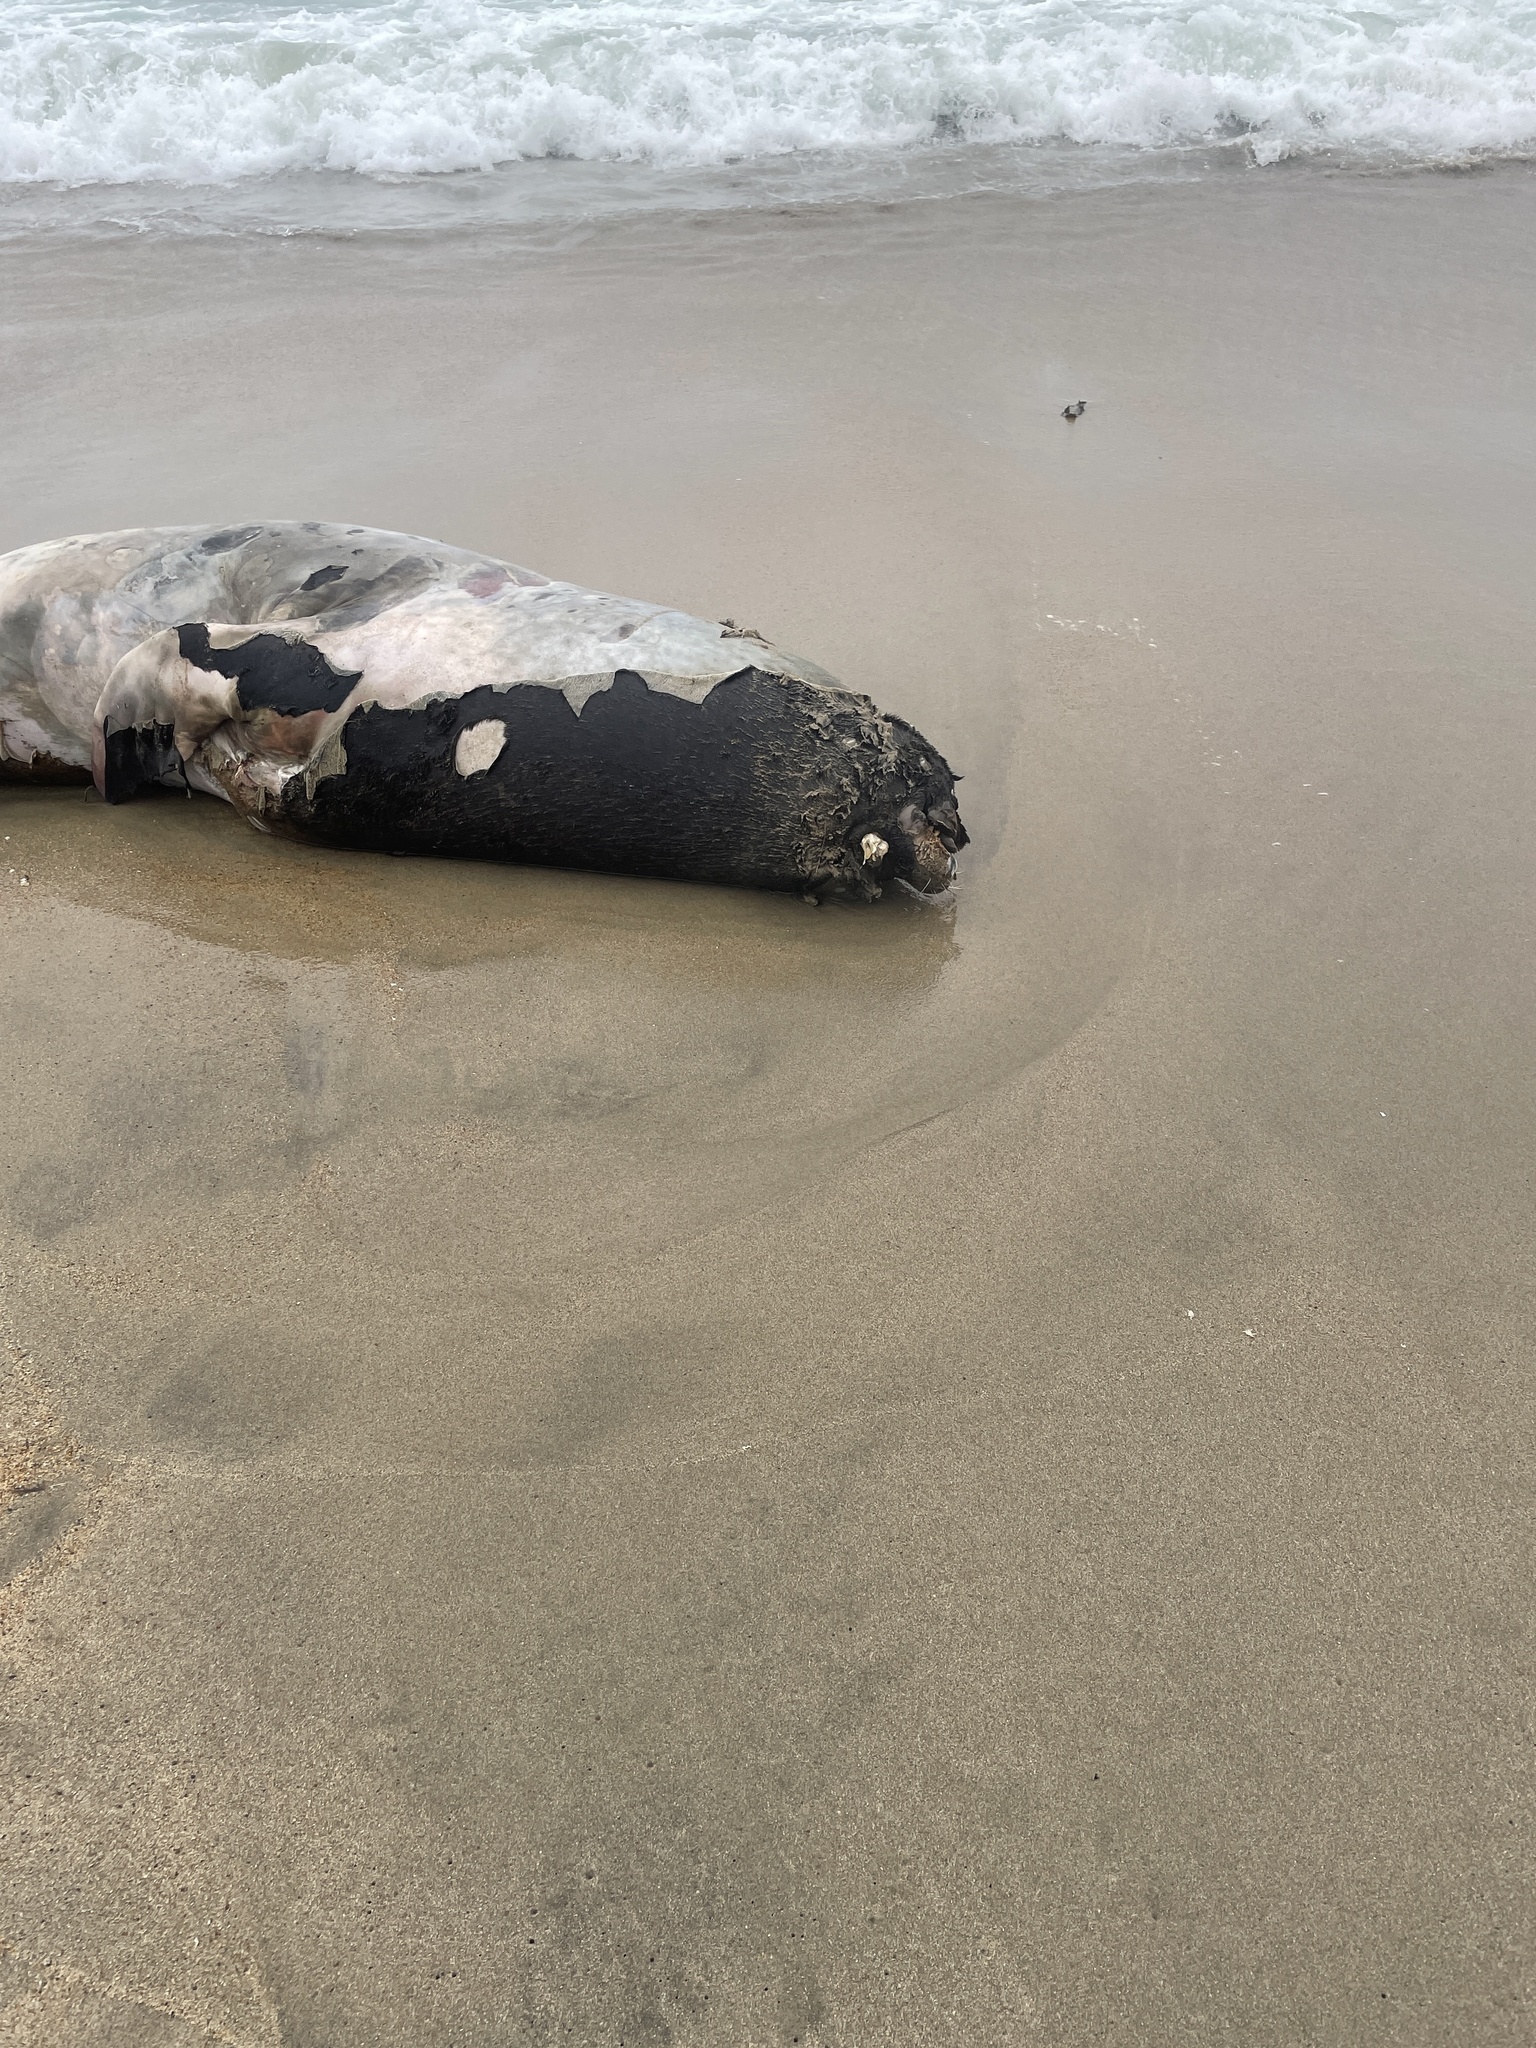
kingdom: Animalia
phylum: Chordata
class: Mammalia
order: Carnivora
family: Otariidae
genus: Zalophus
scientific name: Zalophus californianus
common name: California sea lion
